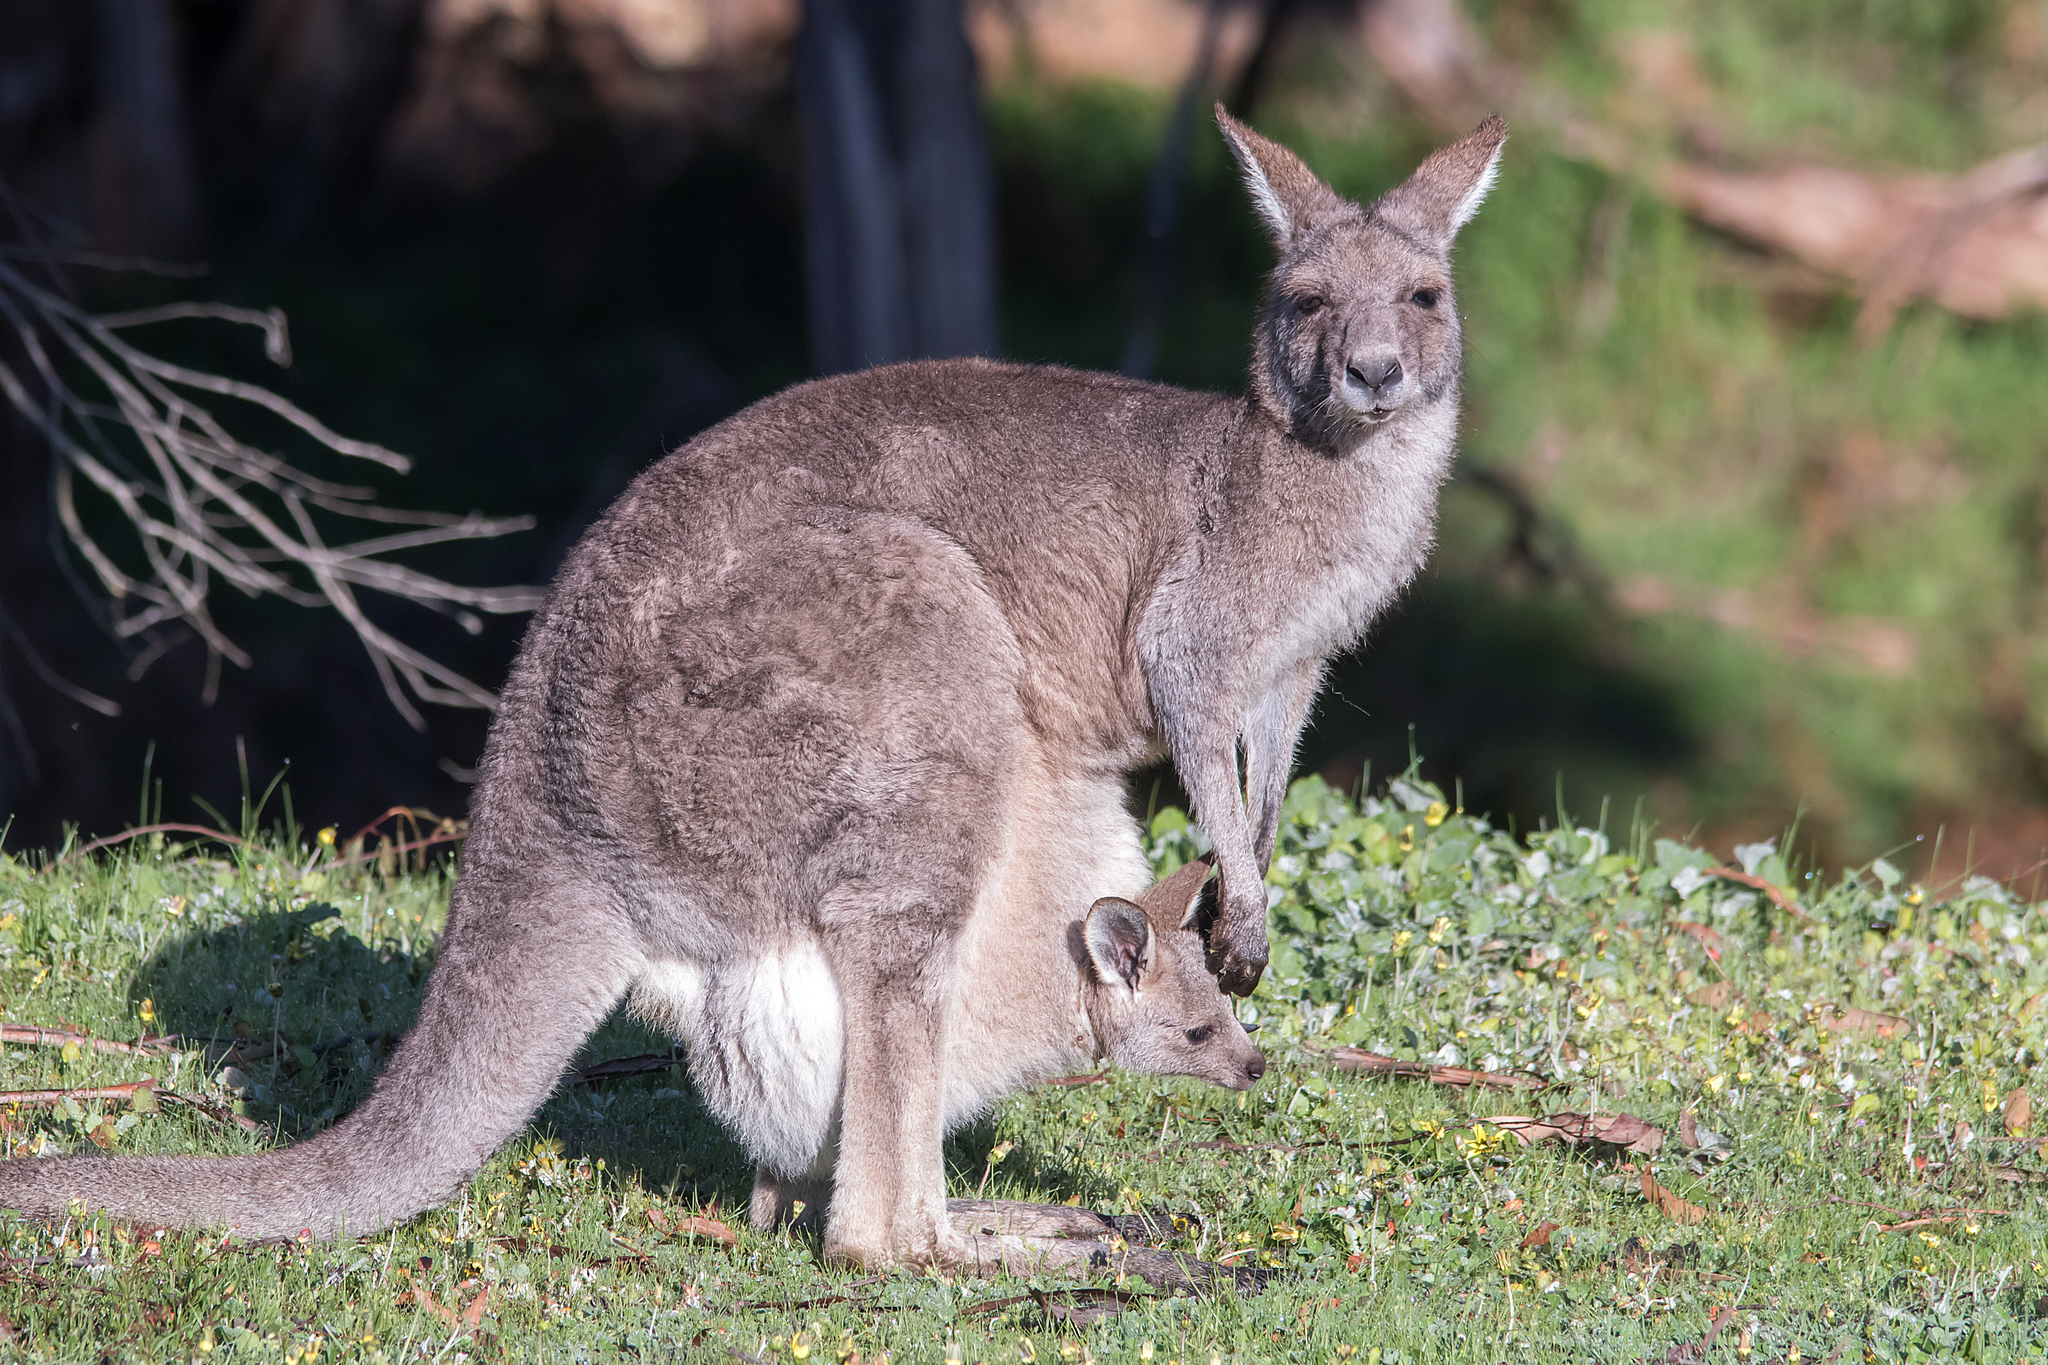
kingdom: Animalia
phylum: Chordata
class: Mammalia
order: Diprotodontia
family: Macropodidae
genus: Macropus
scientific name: Macropus giganteus
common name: Eastern grey kangaroo
